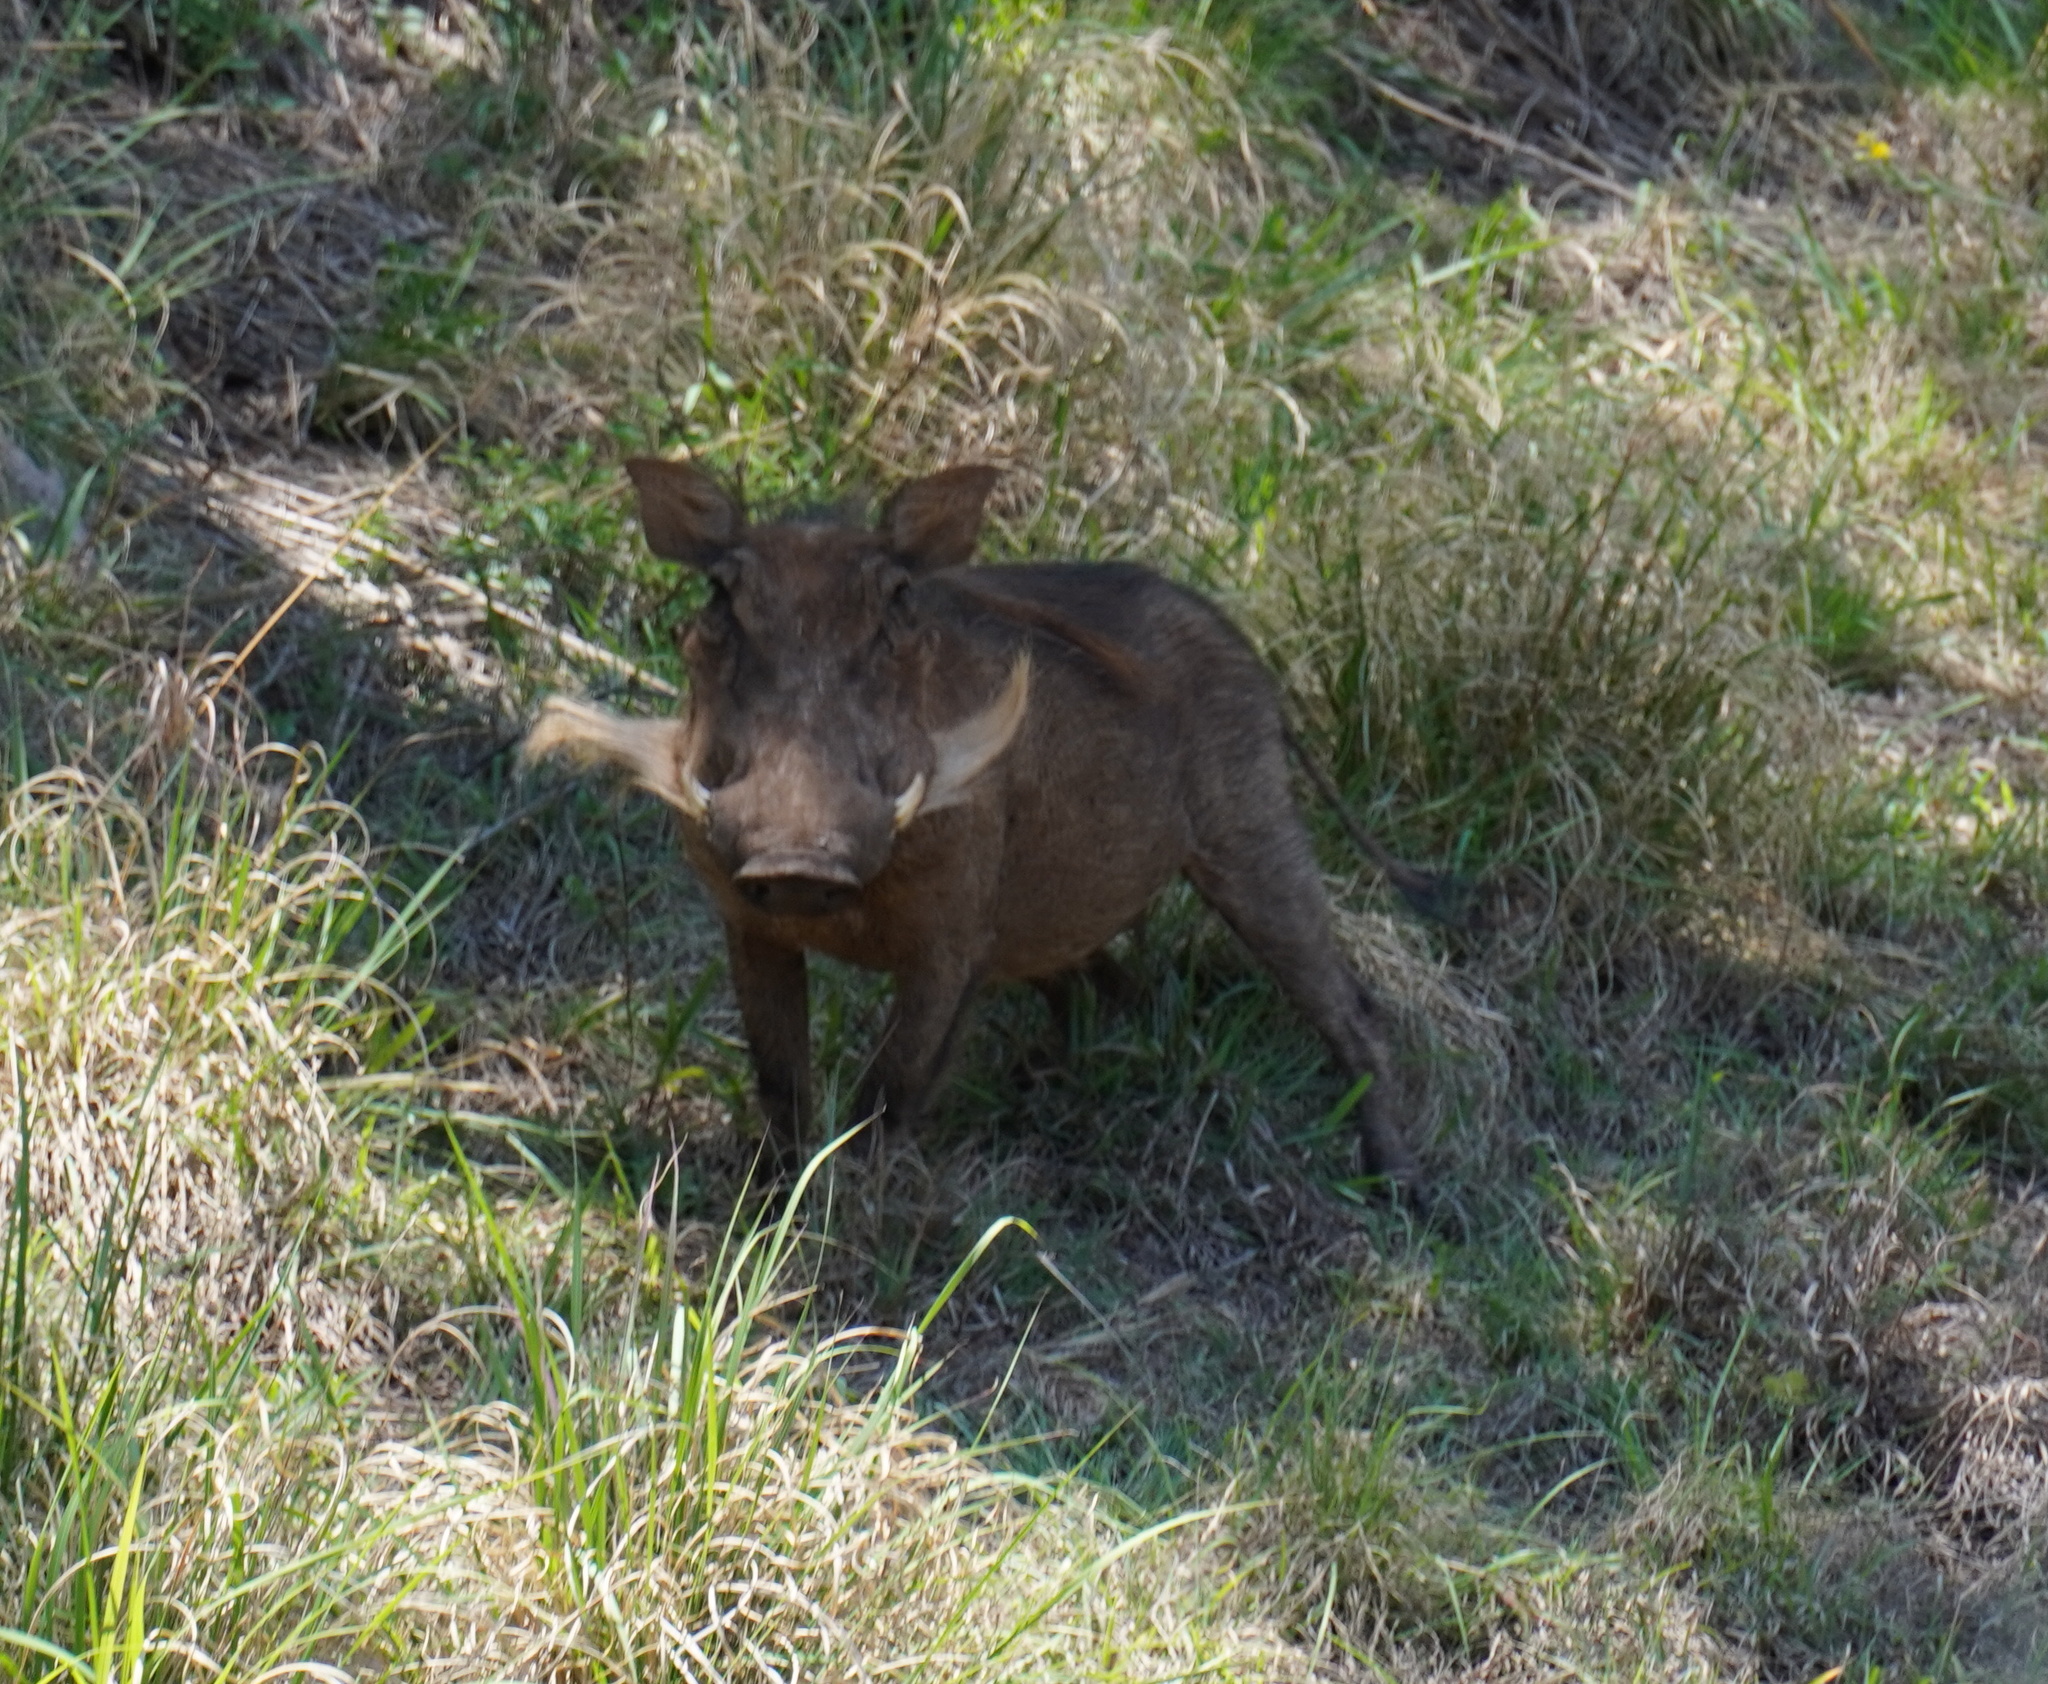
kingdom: Animalia
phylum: Chordata
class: Mammalia
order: Artiodactyla
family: Suidae
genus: Phacochoerus
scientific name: Phacochoerus africanus
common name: Common warthog
